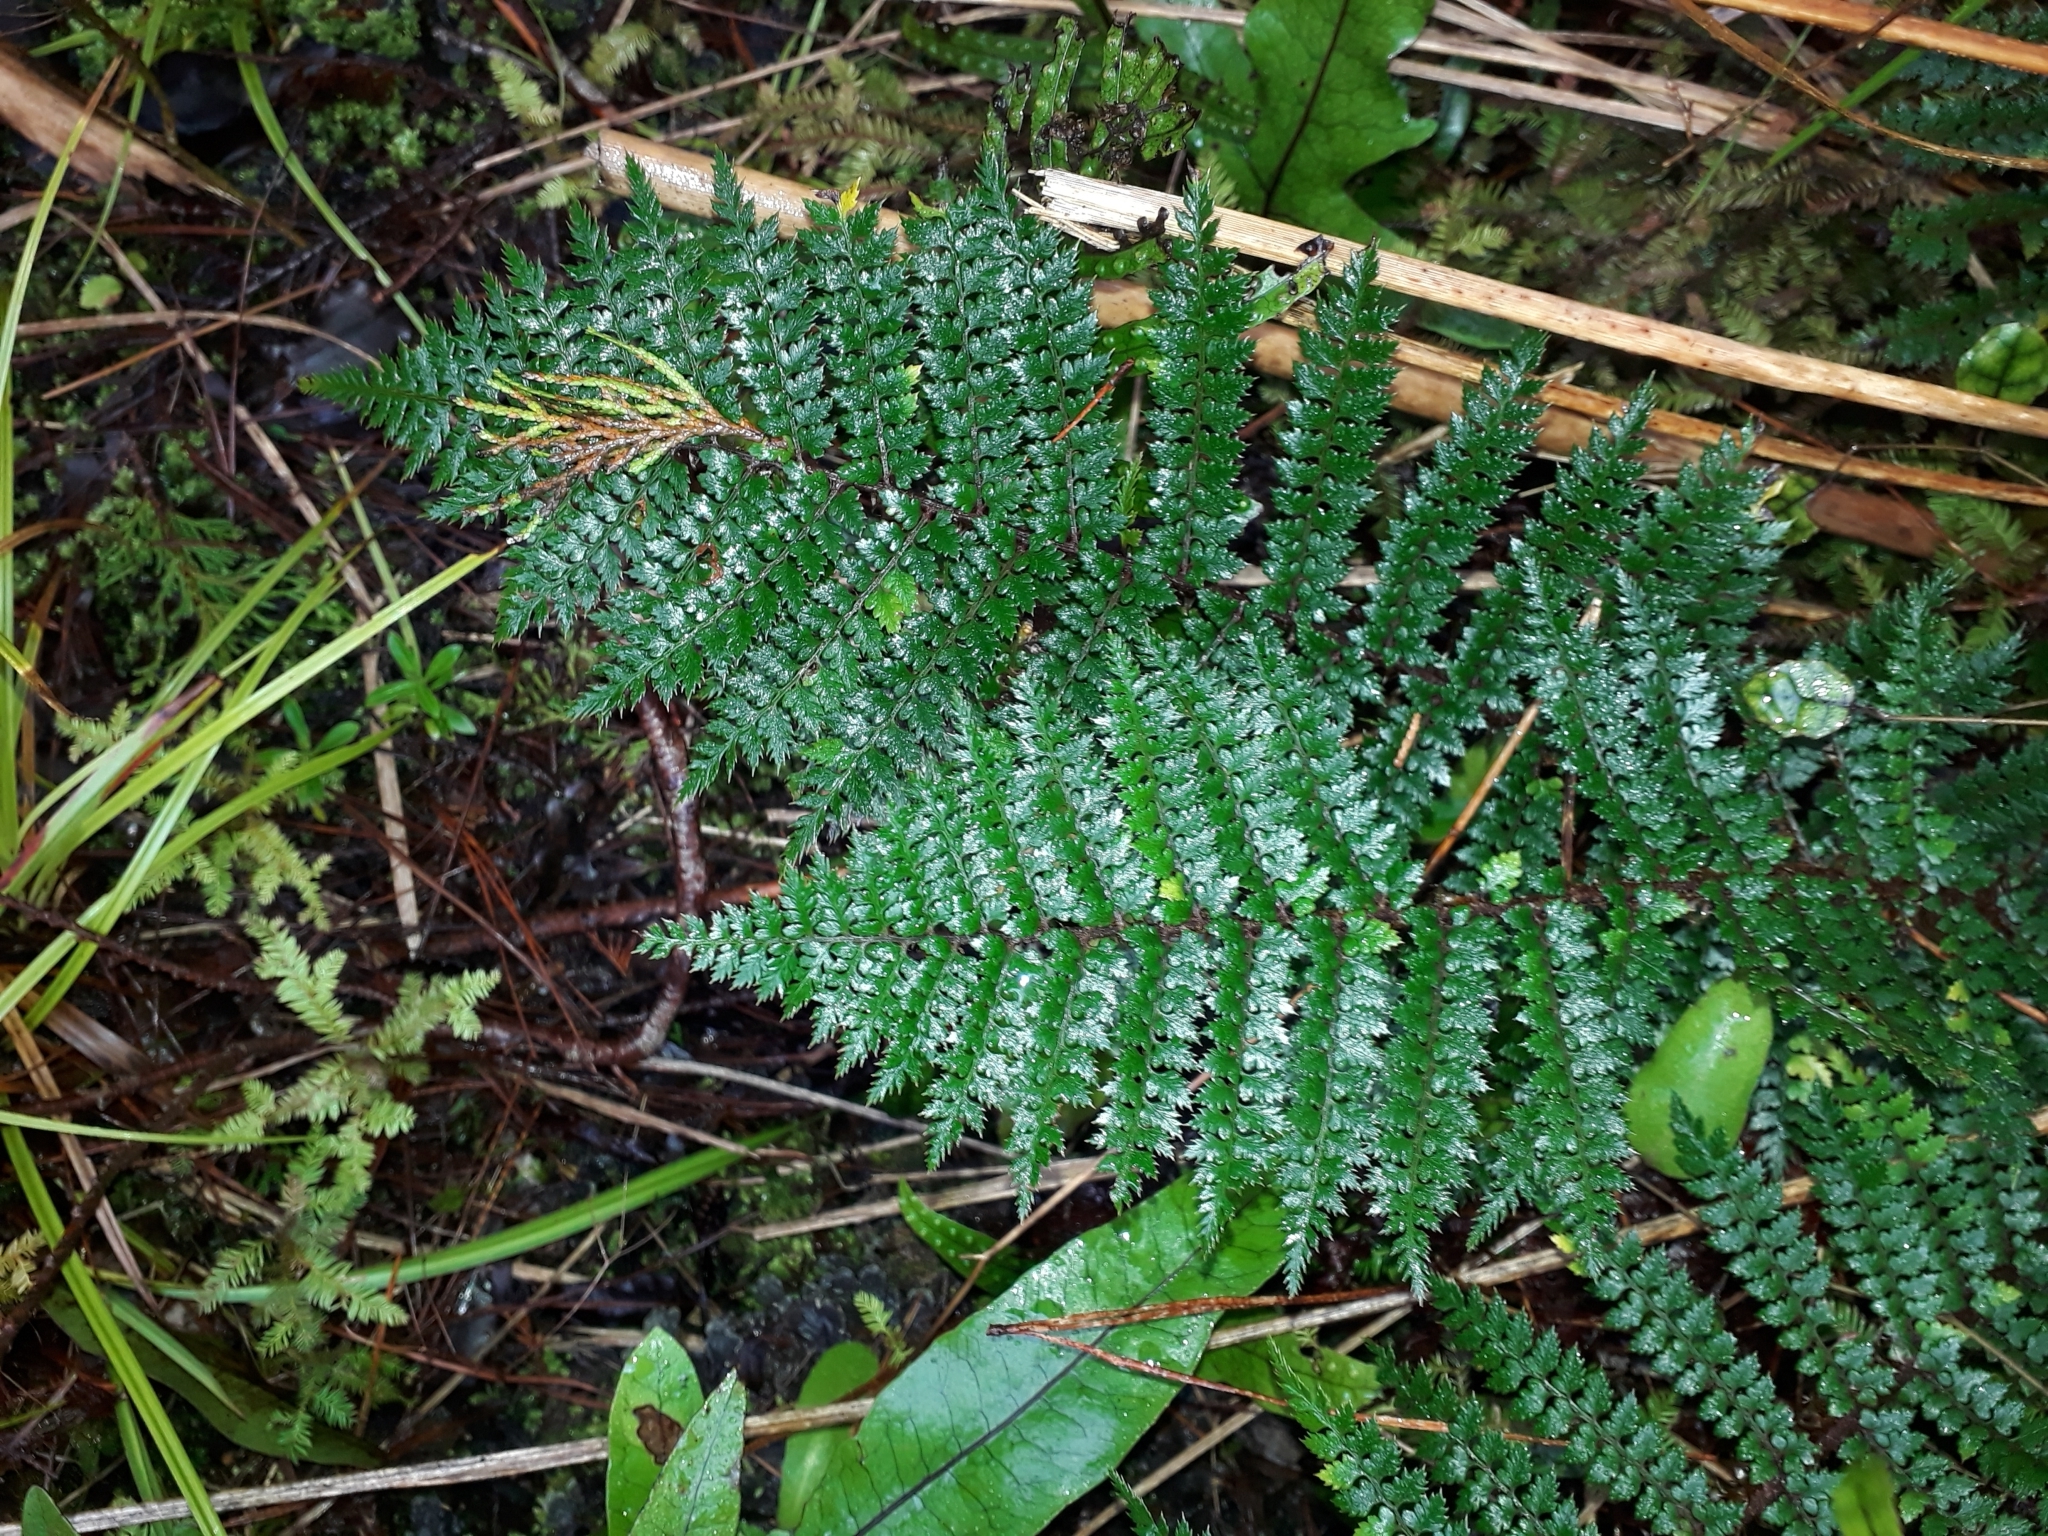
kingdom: Plantae
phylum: Tracheophyta
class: Polypodiopsida
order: Polypodiales
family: Dryopteridaceae
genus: Polystichum
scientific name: Polystichum vestitum
